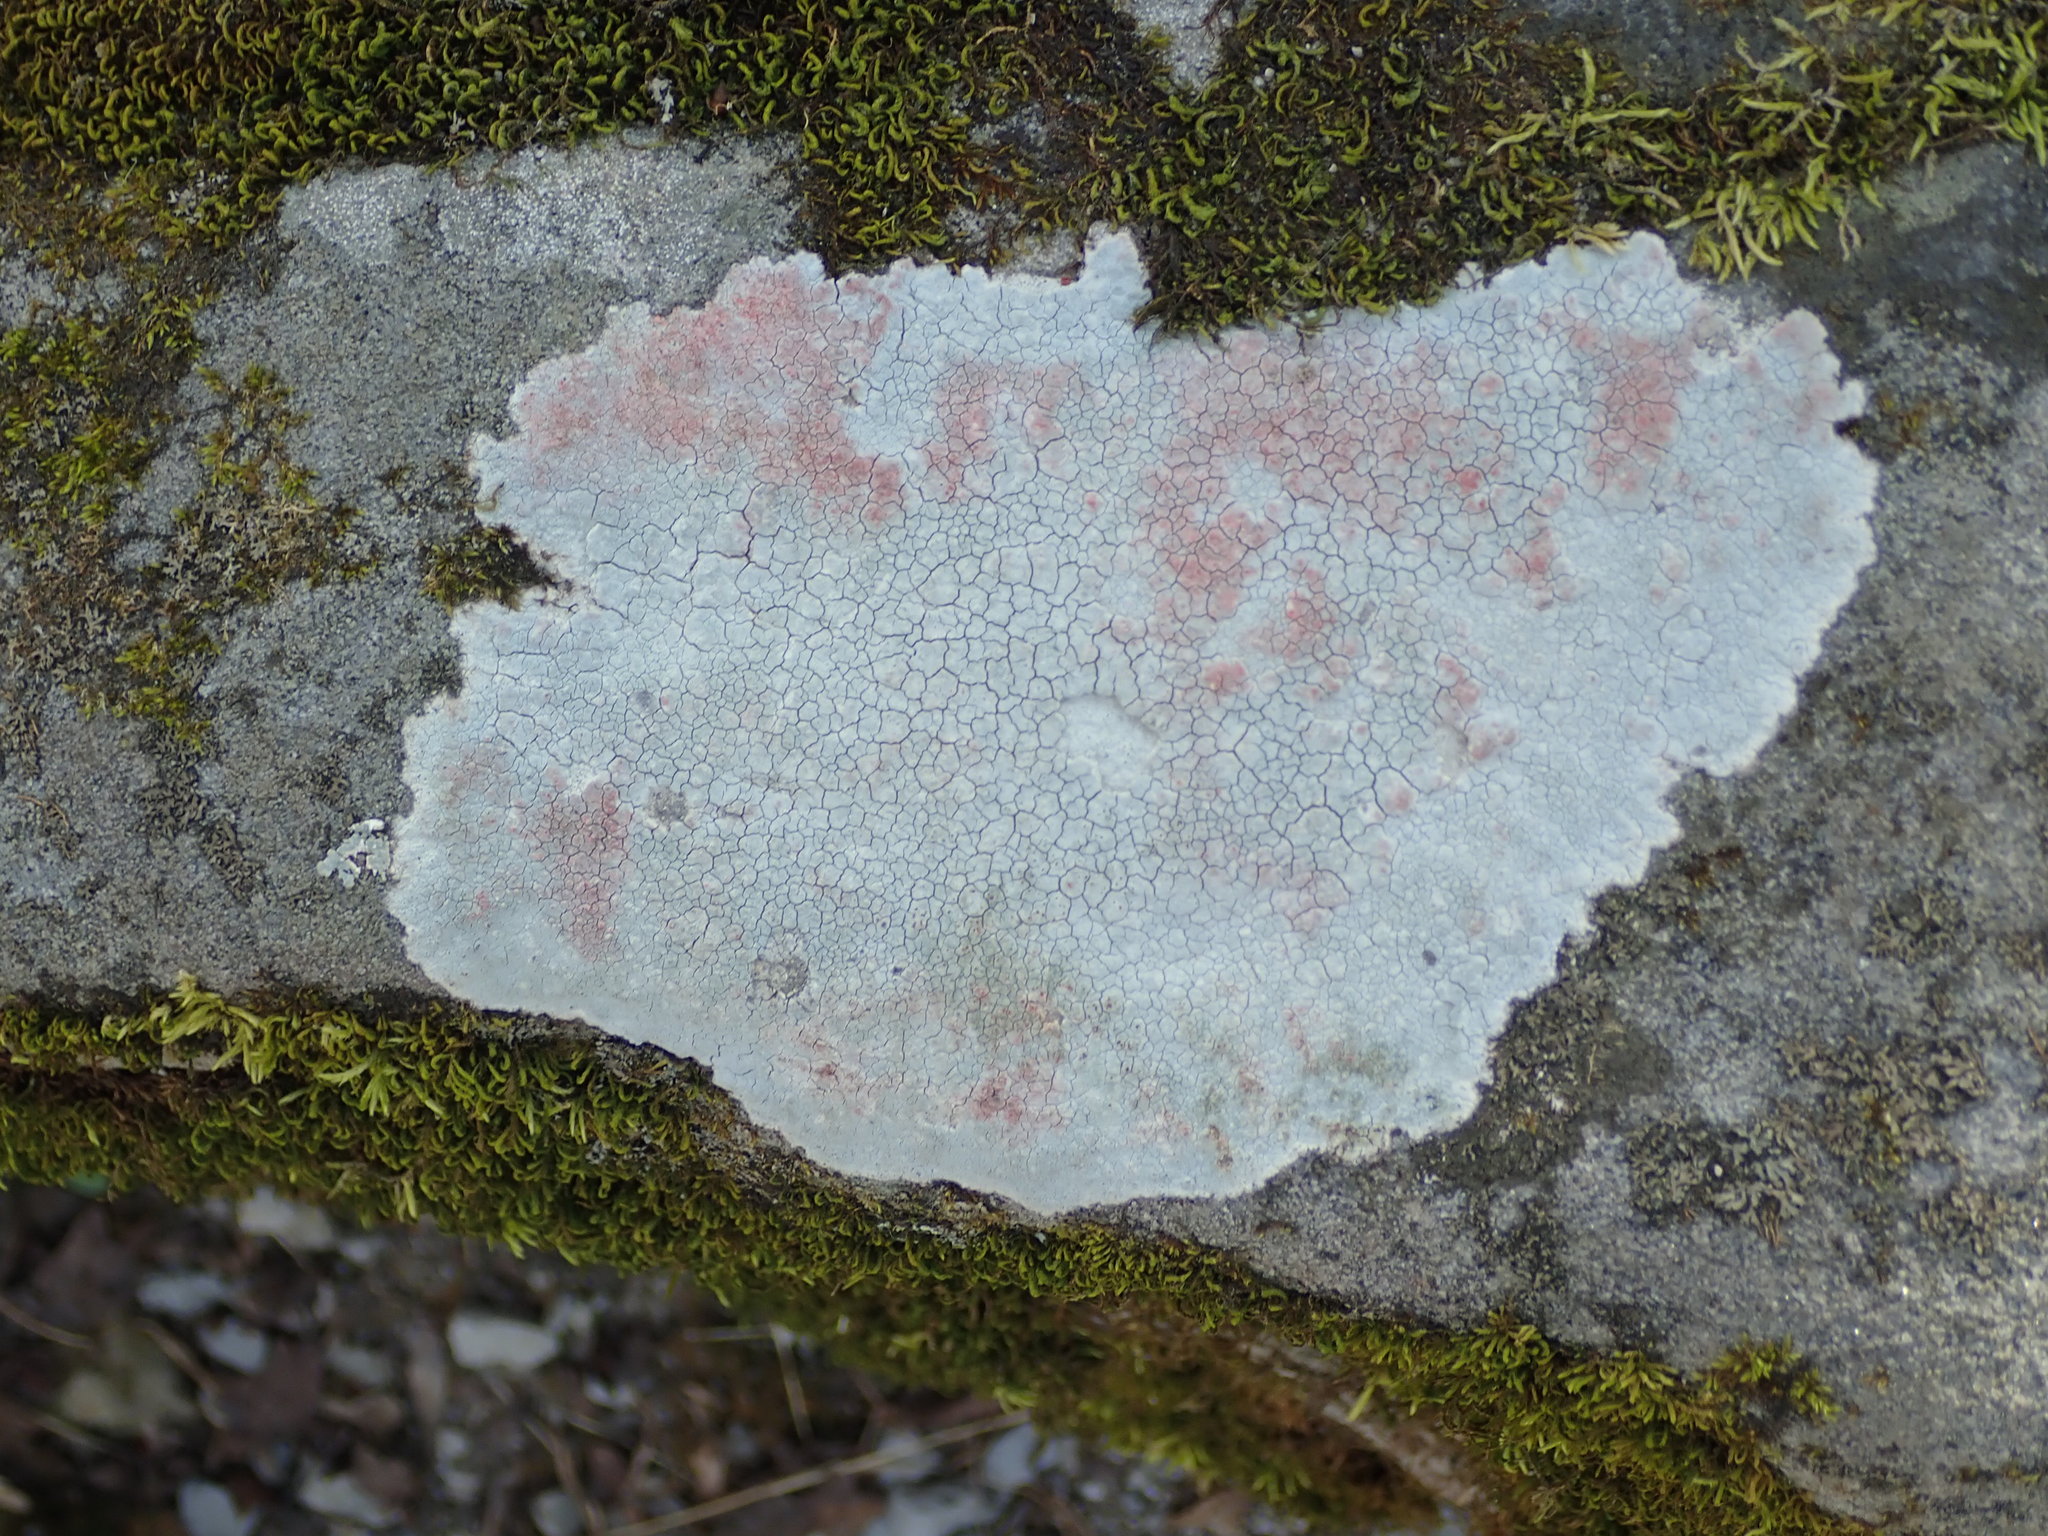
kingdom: Fungi
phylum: Ascomycota
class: Lecanoromycetes
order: Baeomycetales
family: Trapeliaceae
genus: Kleopowiella
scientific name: Kleopowiella placodioides
